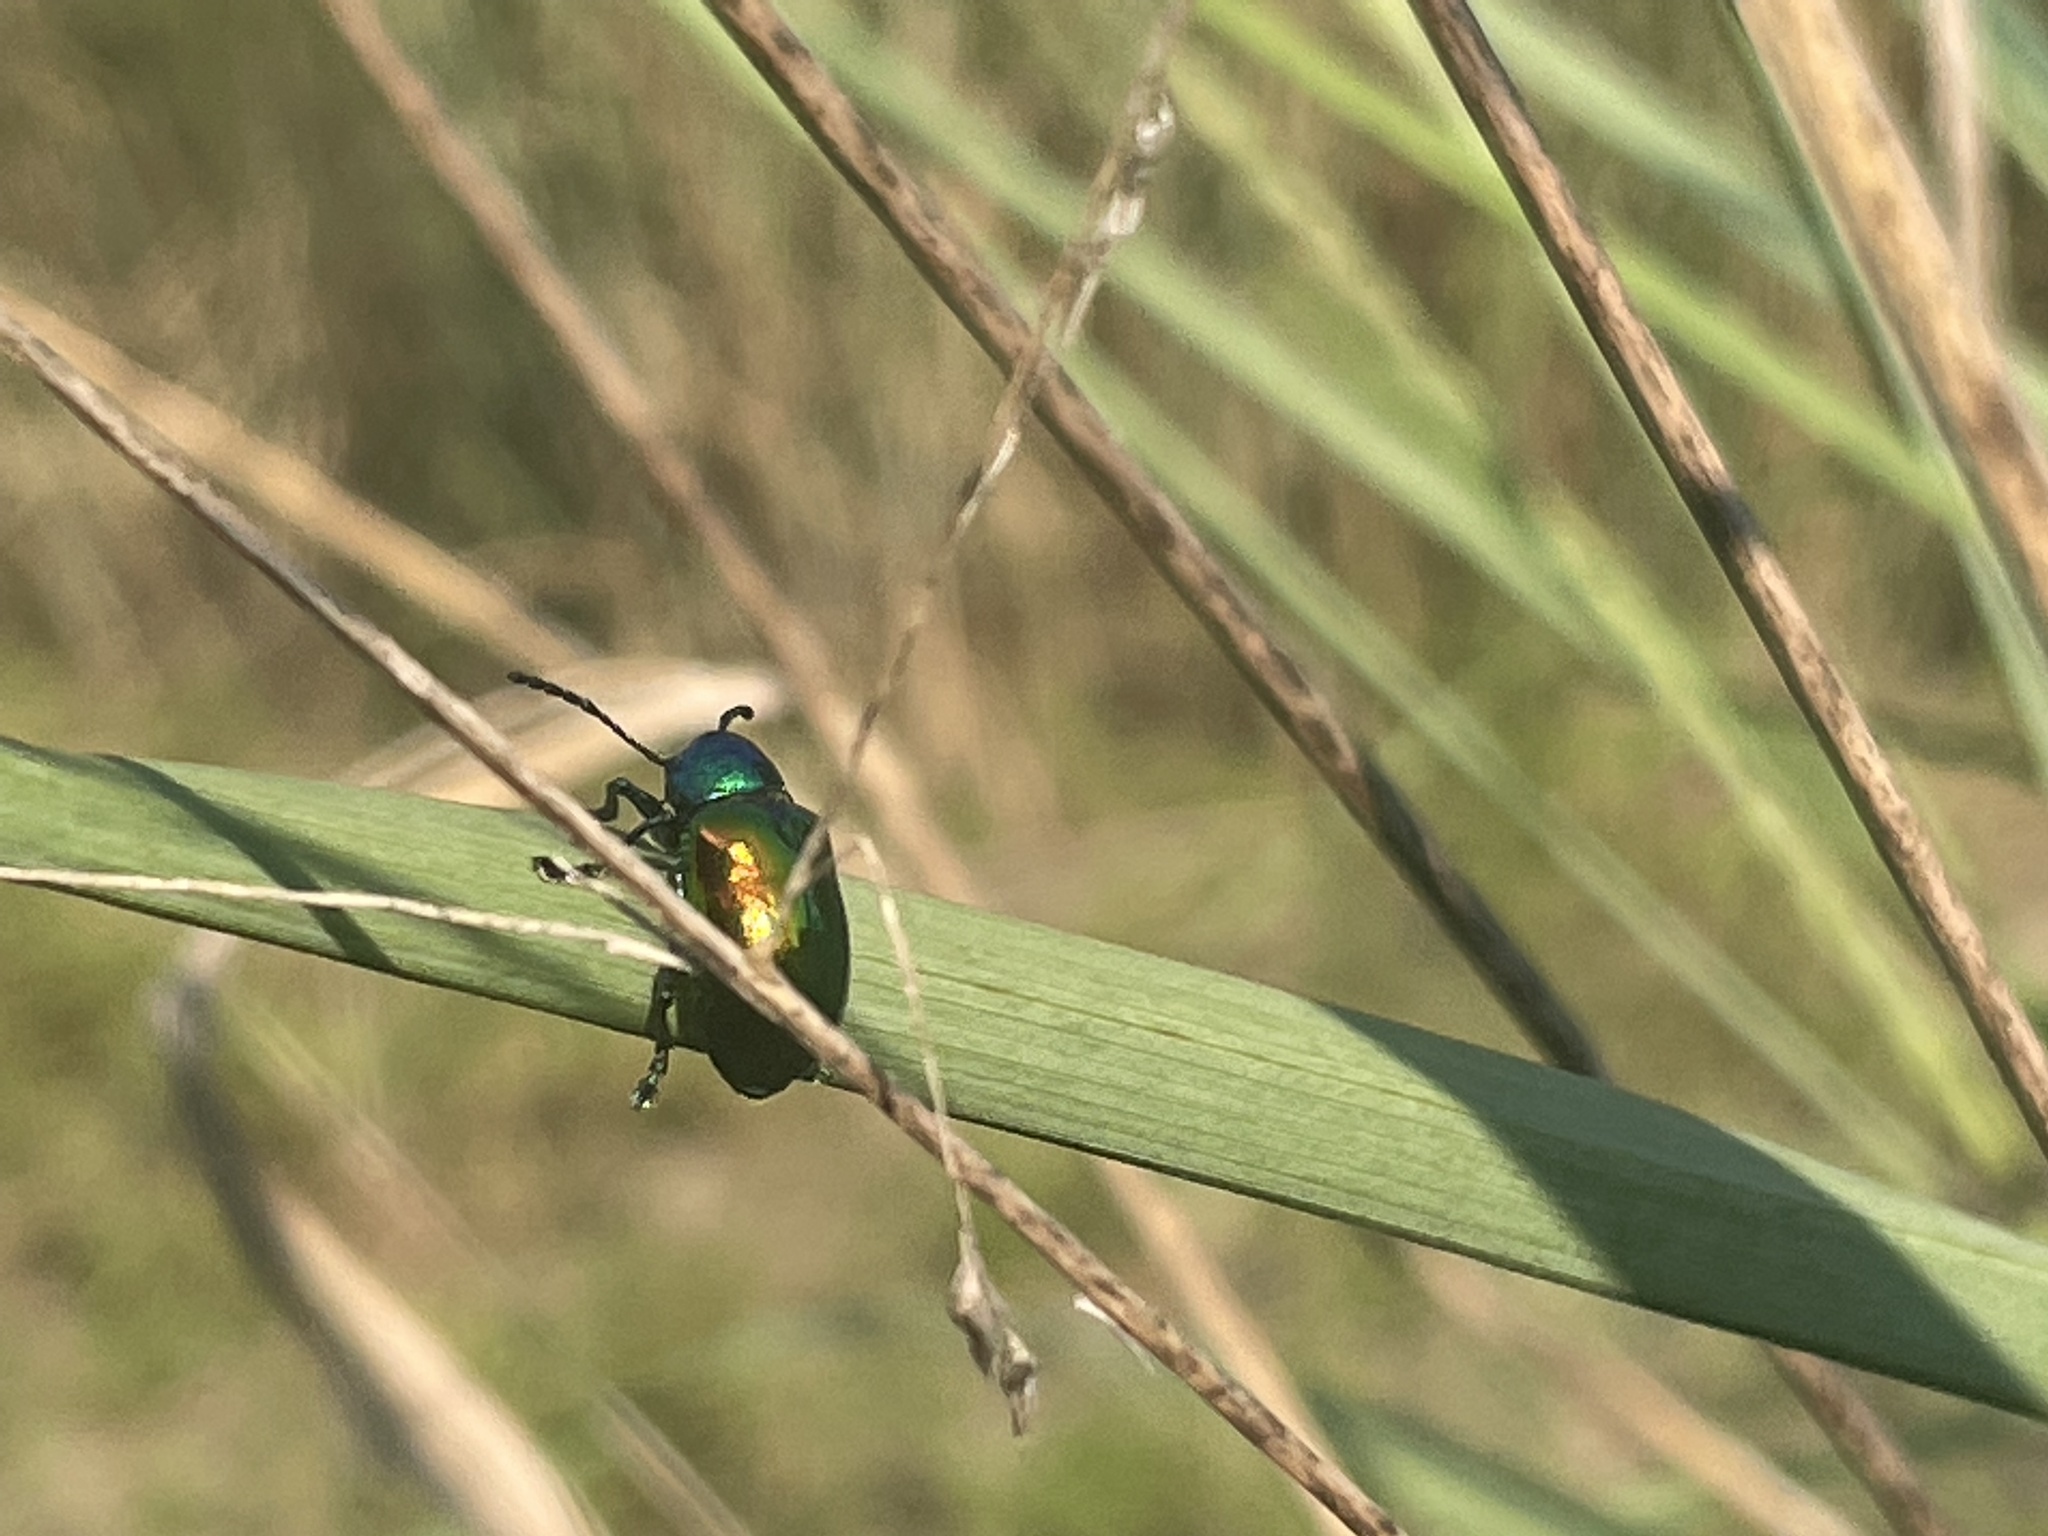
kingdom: Animalia
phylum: Arthropoda
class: Insecta
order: Coleoptera
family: Chrysomelidae
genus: Chrysochus
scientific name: Chrysochus auratus
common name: Dogbane leaf beetle
